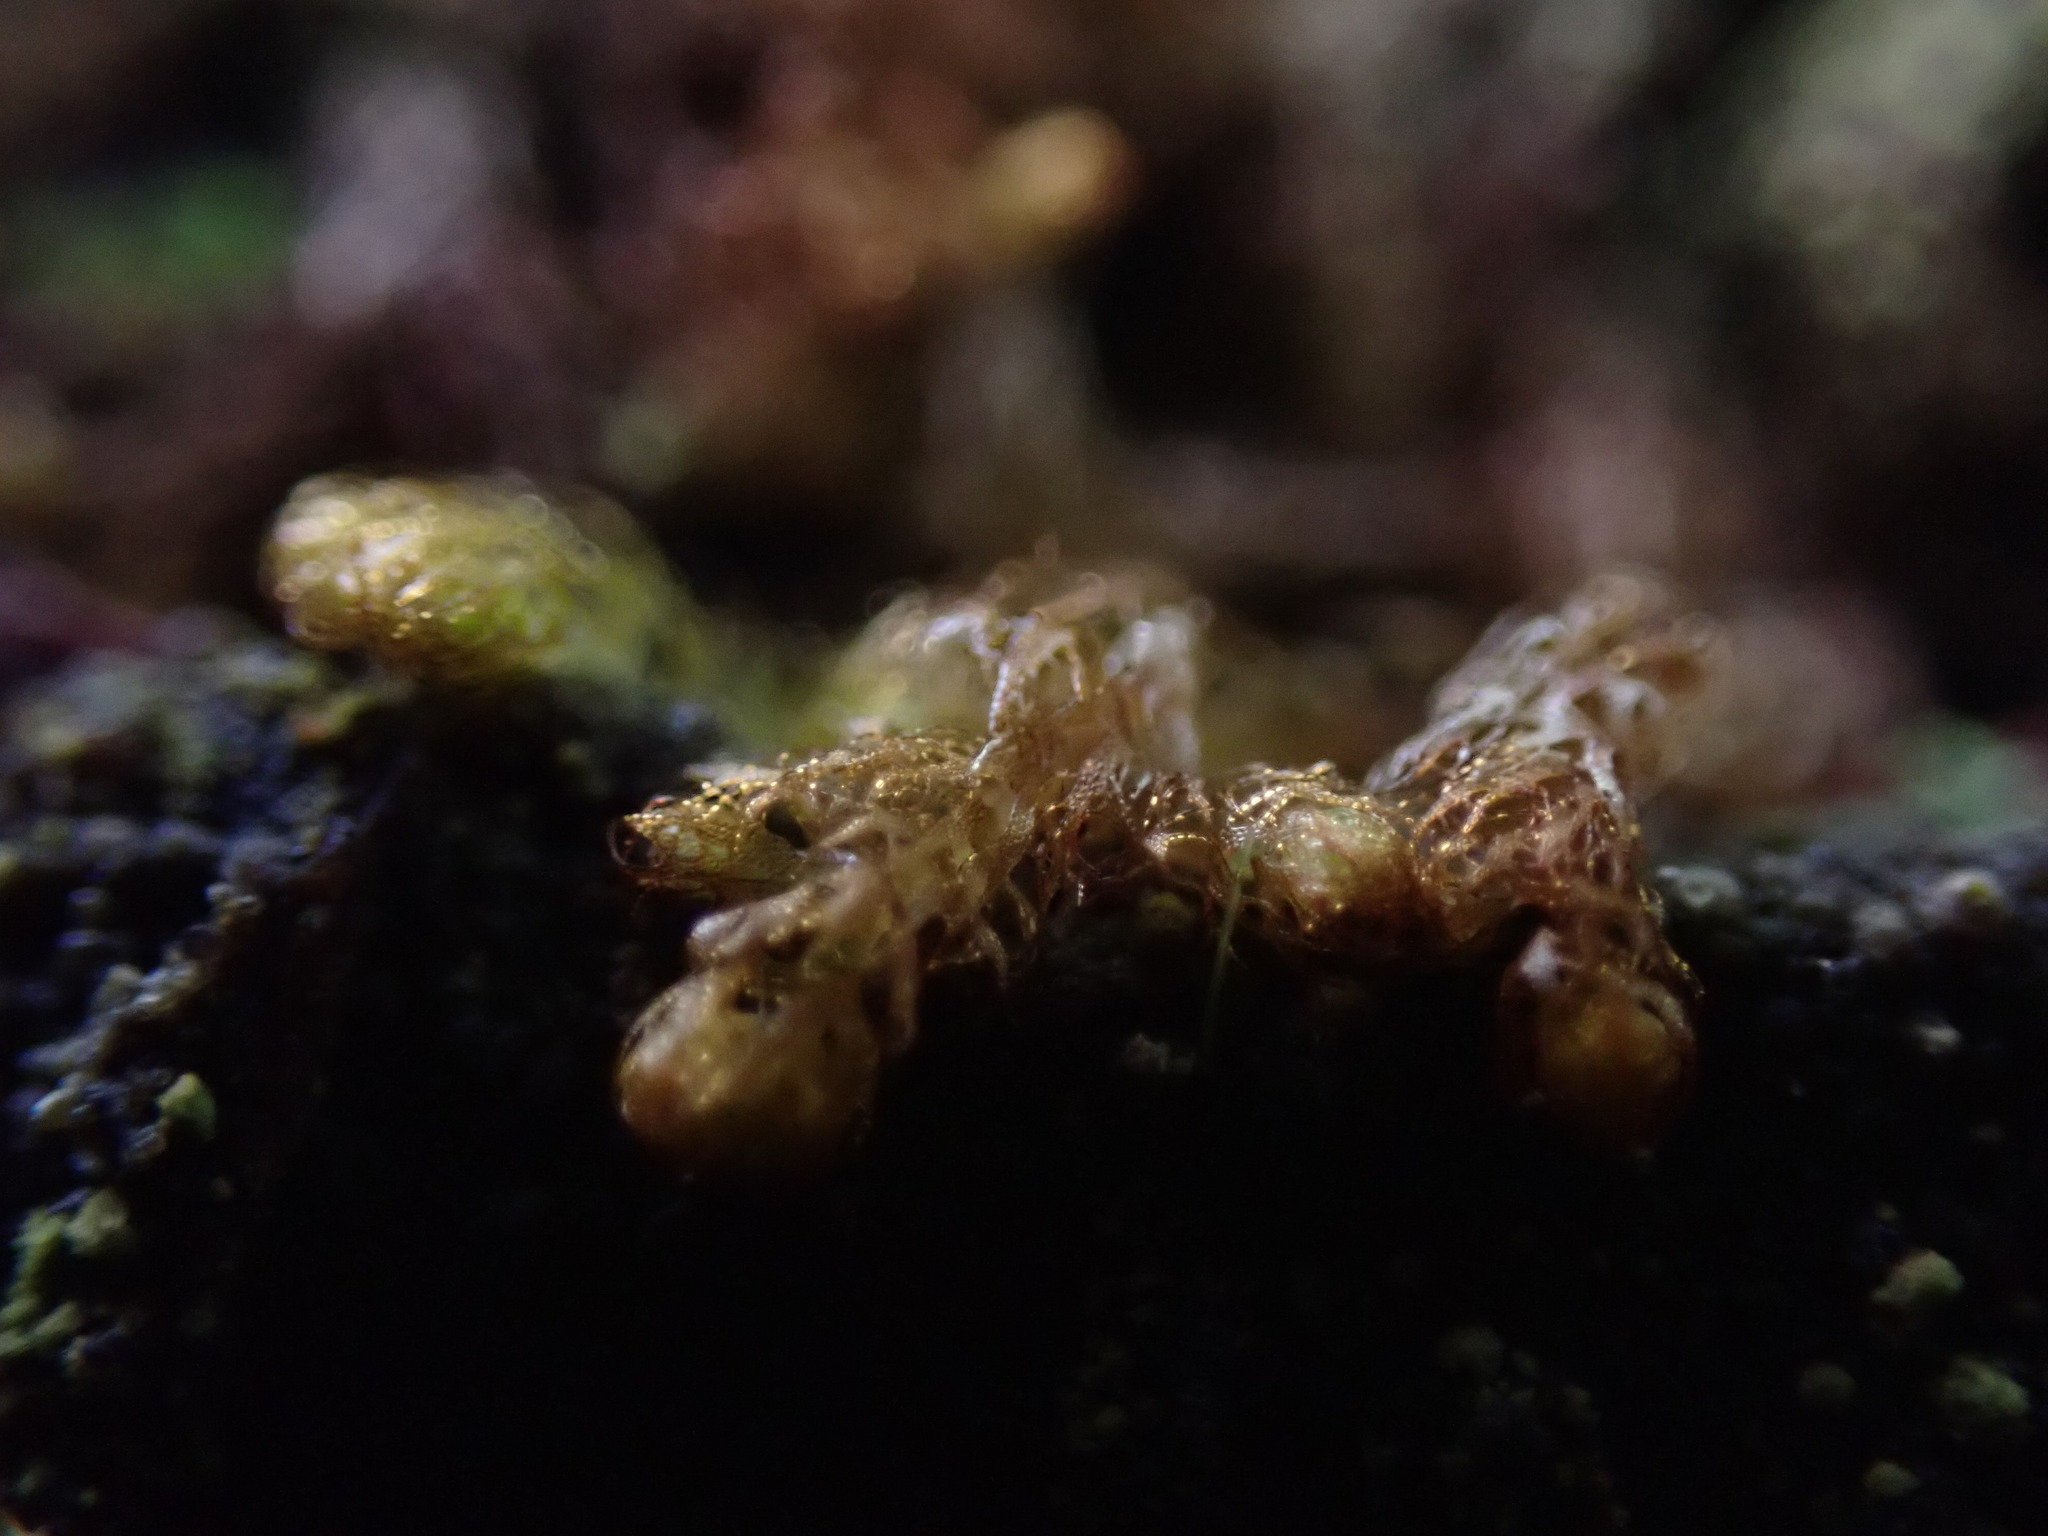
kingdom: Plantae
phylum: Marchantiophyta
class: Jungermanniopsida
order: Ptilidiales
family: Ptilidiaceae
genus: Ptilidium
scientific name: Ptilidium californicum
